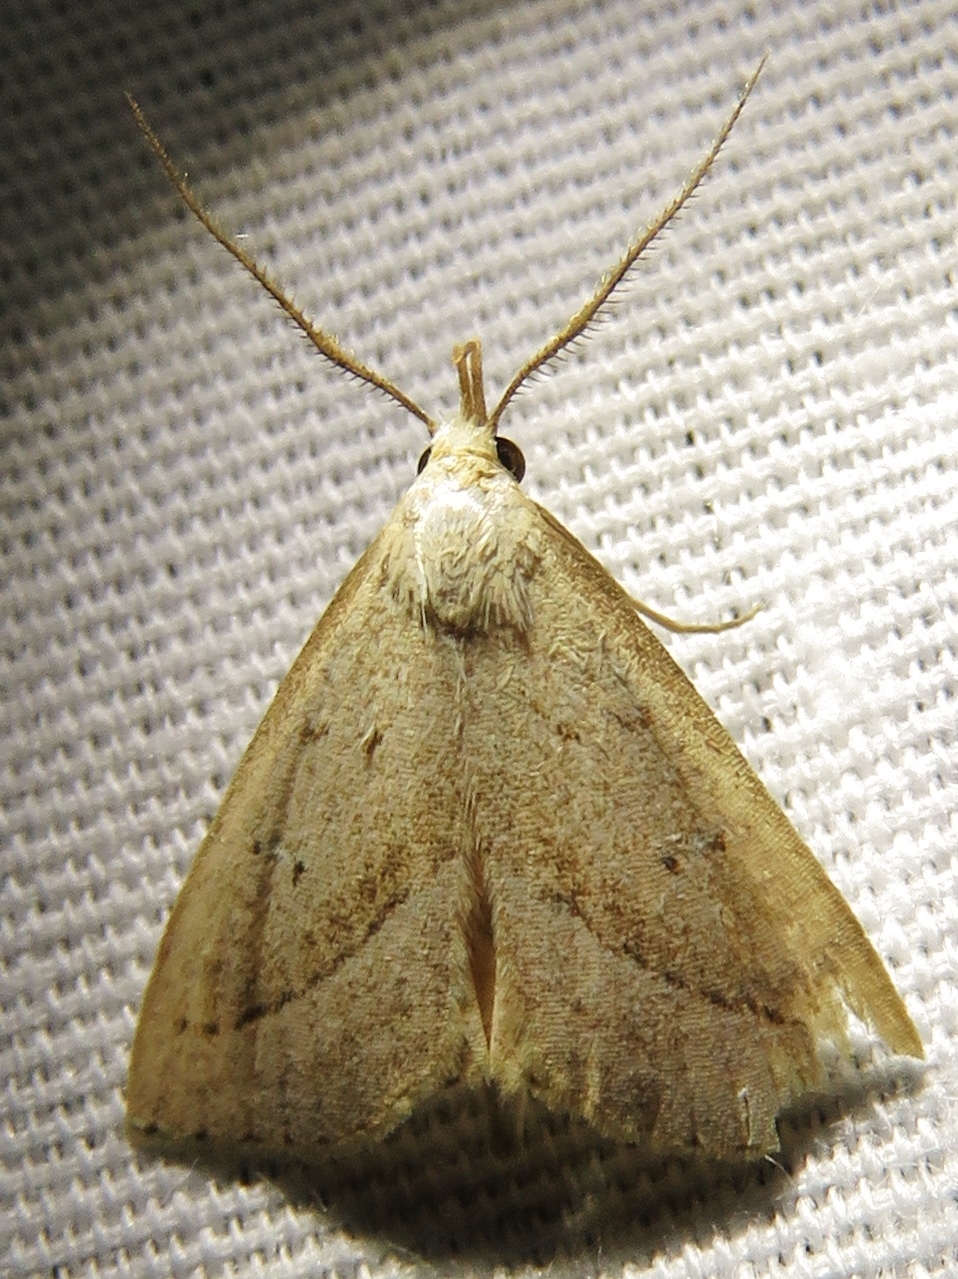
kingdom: Animalia
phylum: Arthropoda
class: Insecta
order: Lepidoptera
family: Erebidae
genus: Macrochilo
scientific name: Macrochilo hypocritalis
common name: Twin-dotted owlet
